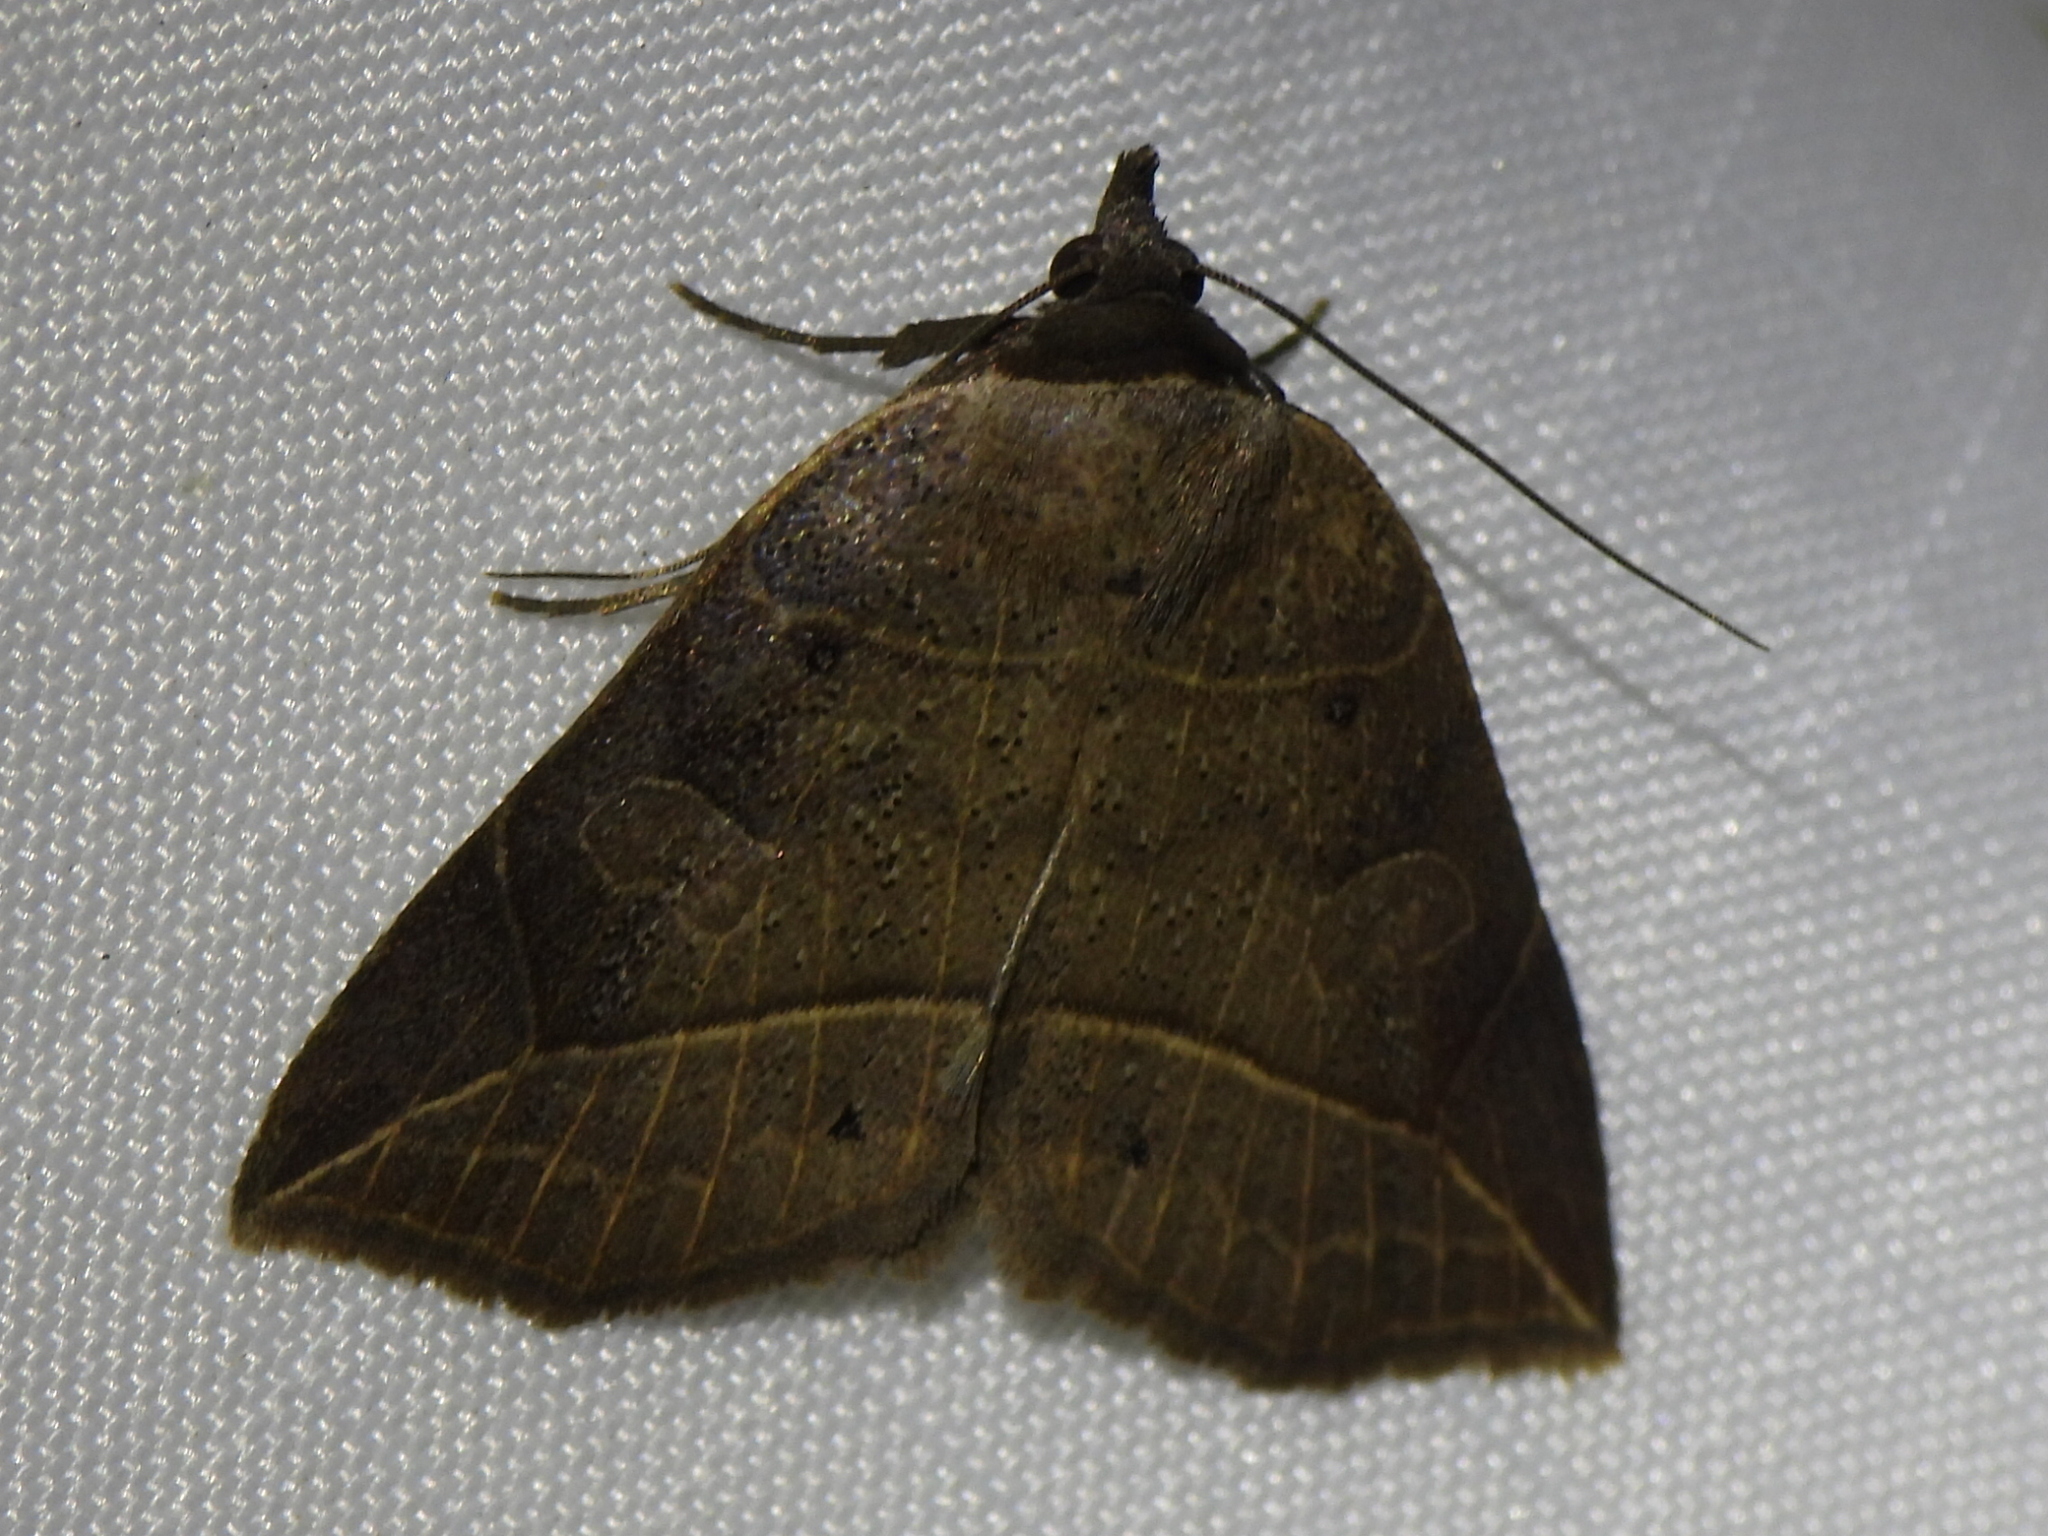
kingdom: Animalia
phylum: Arthropoda
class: Insecta
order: Lepidoptera
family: Erebidae
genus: Isogona
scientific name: Isogona tenuis
